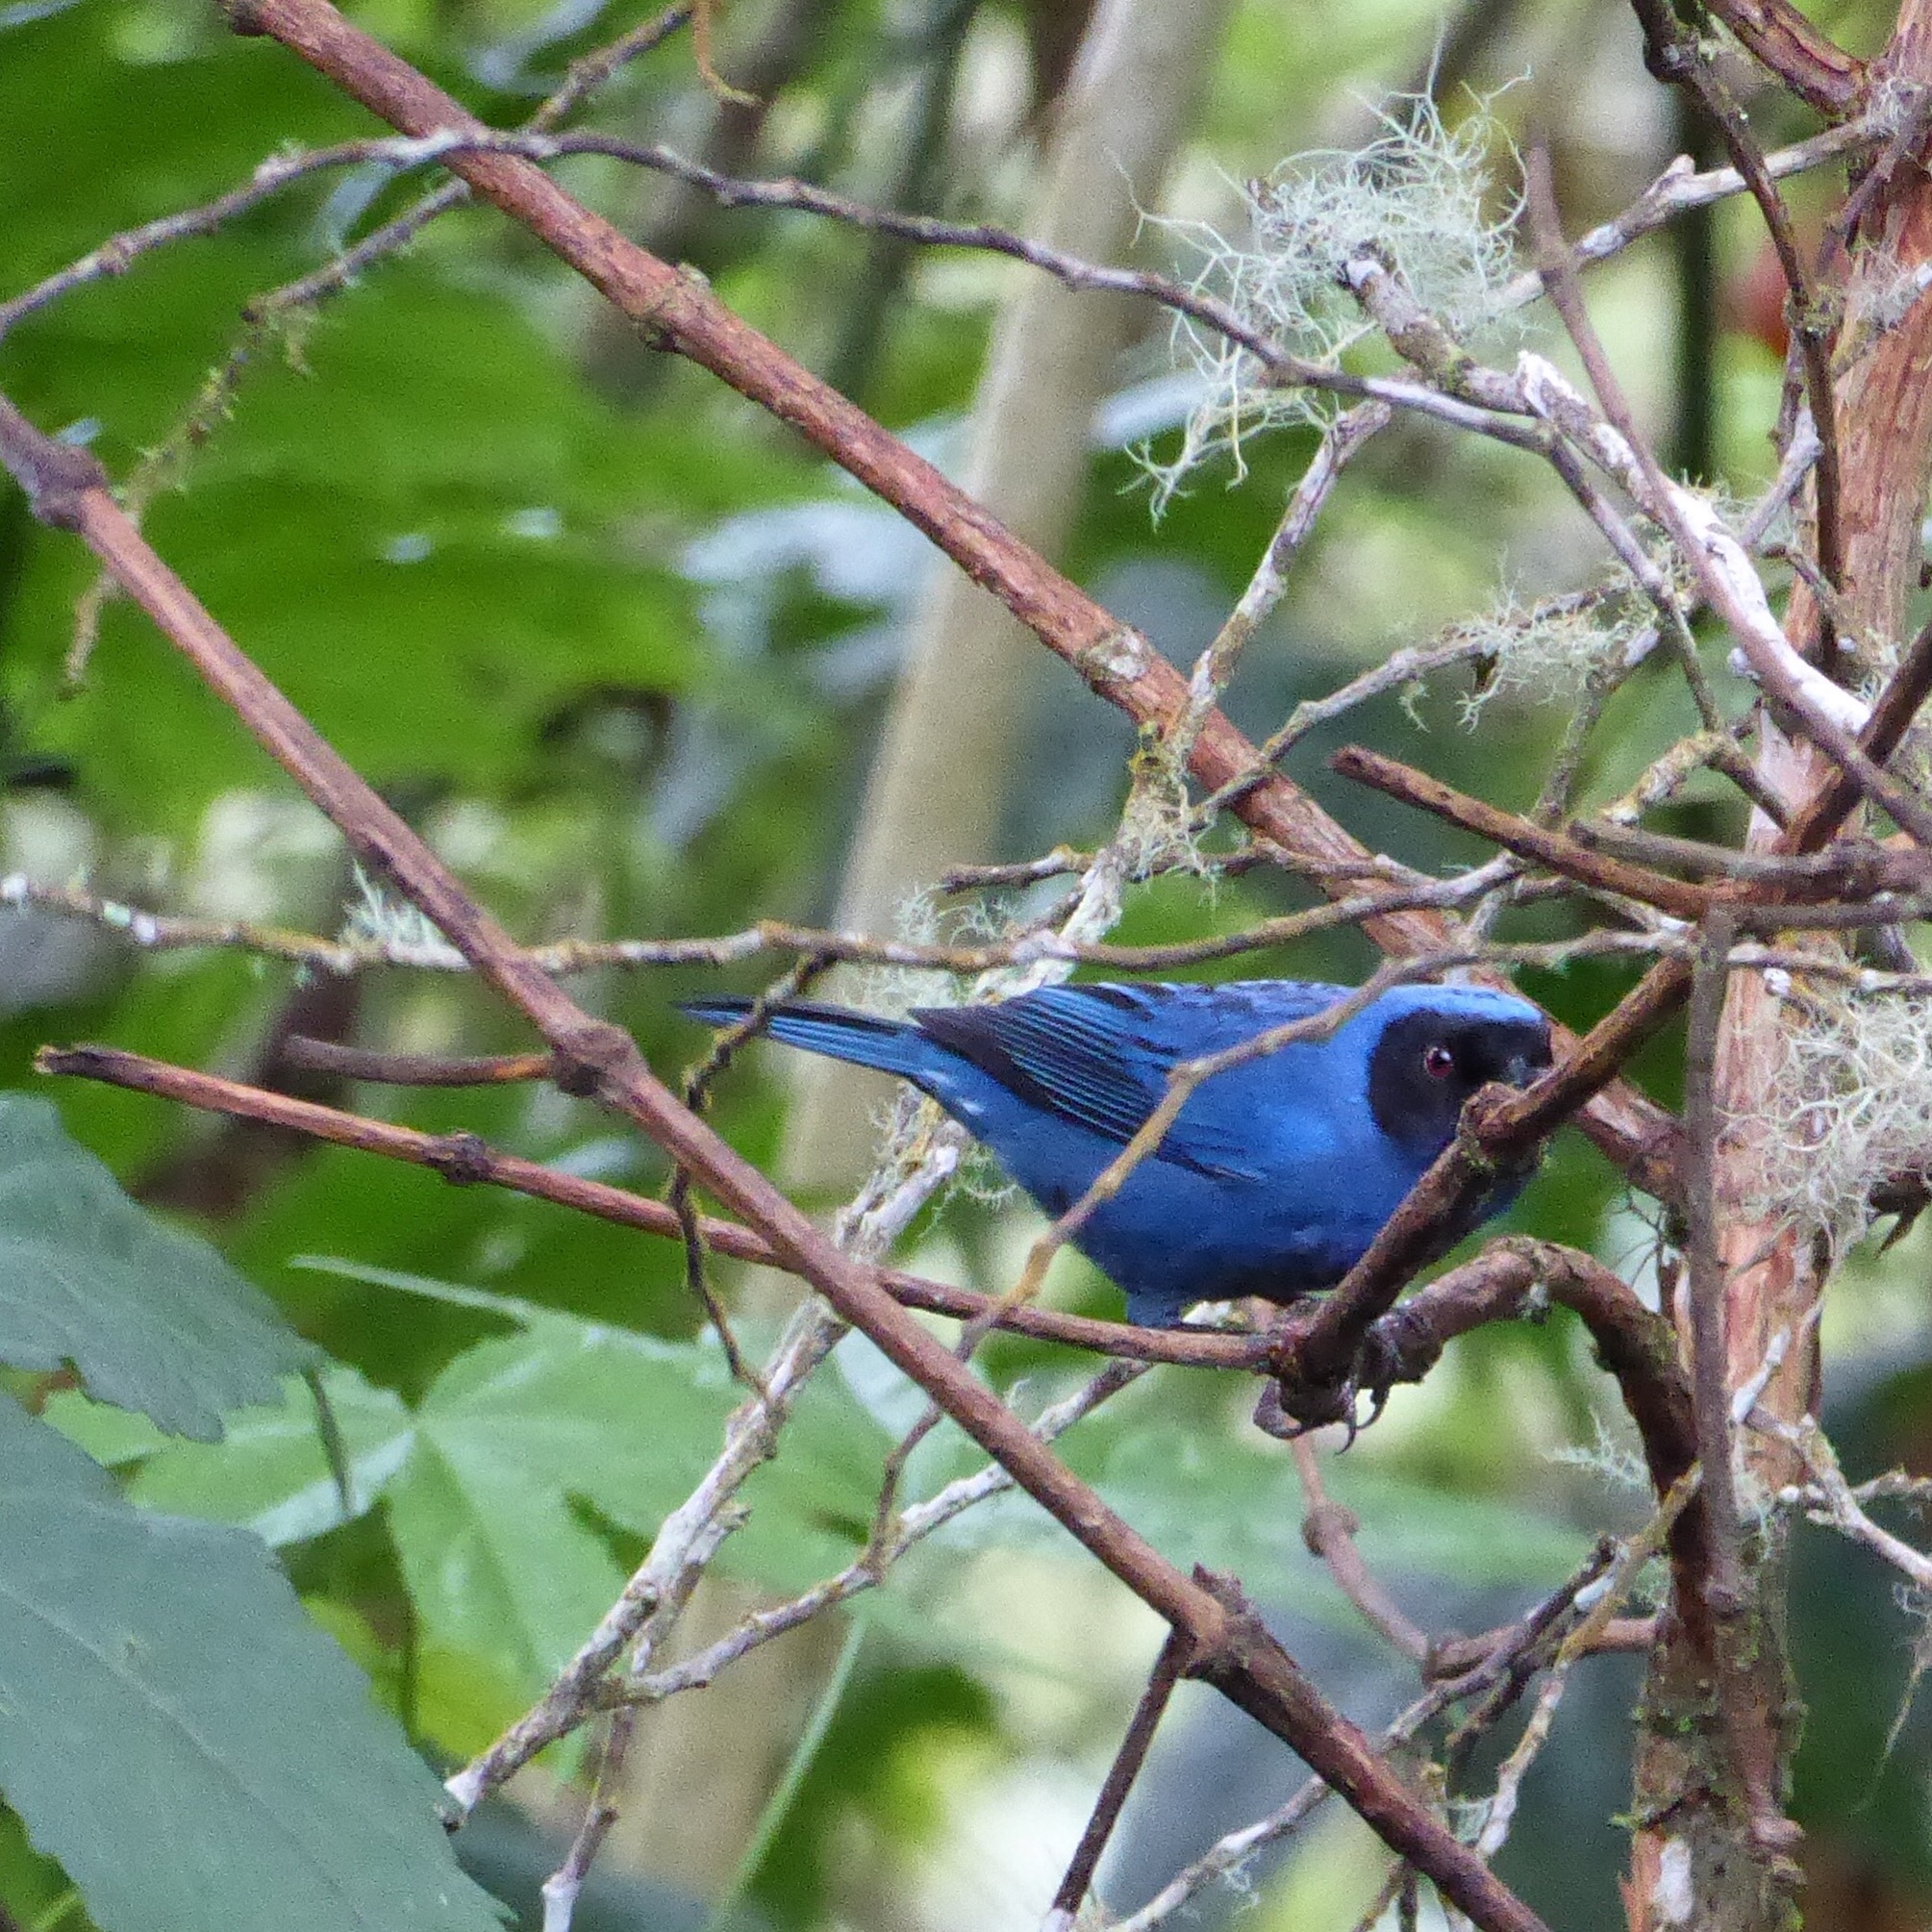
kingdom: Animalia
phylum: Chordata
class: Aves
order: Passeriformes
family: Thraupidae
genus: Diglossa
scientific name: Diglossa cyanea
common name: Masked flowerpiercer
